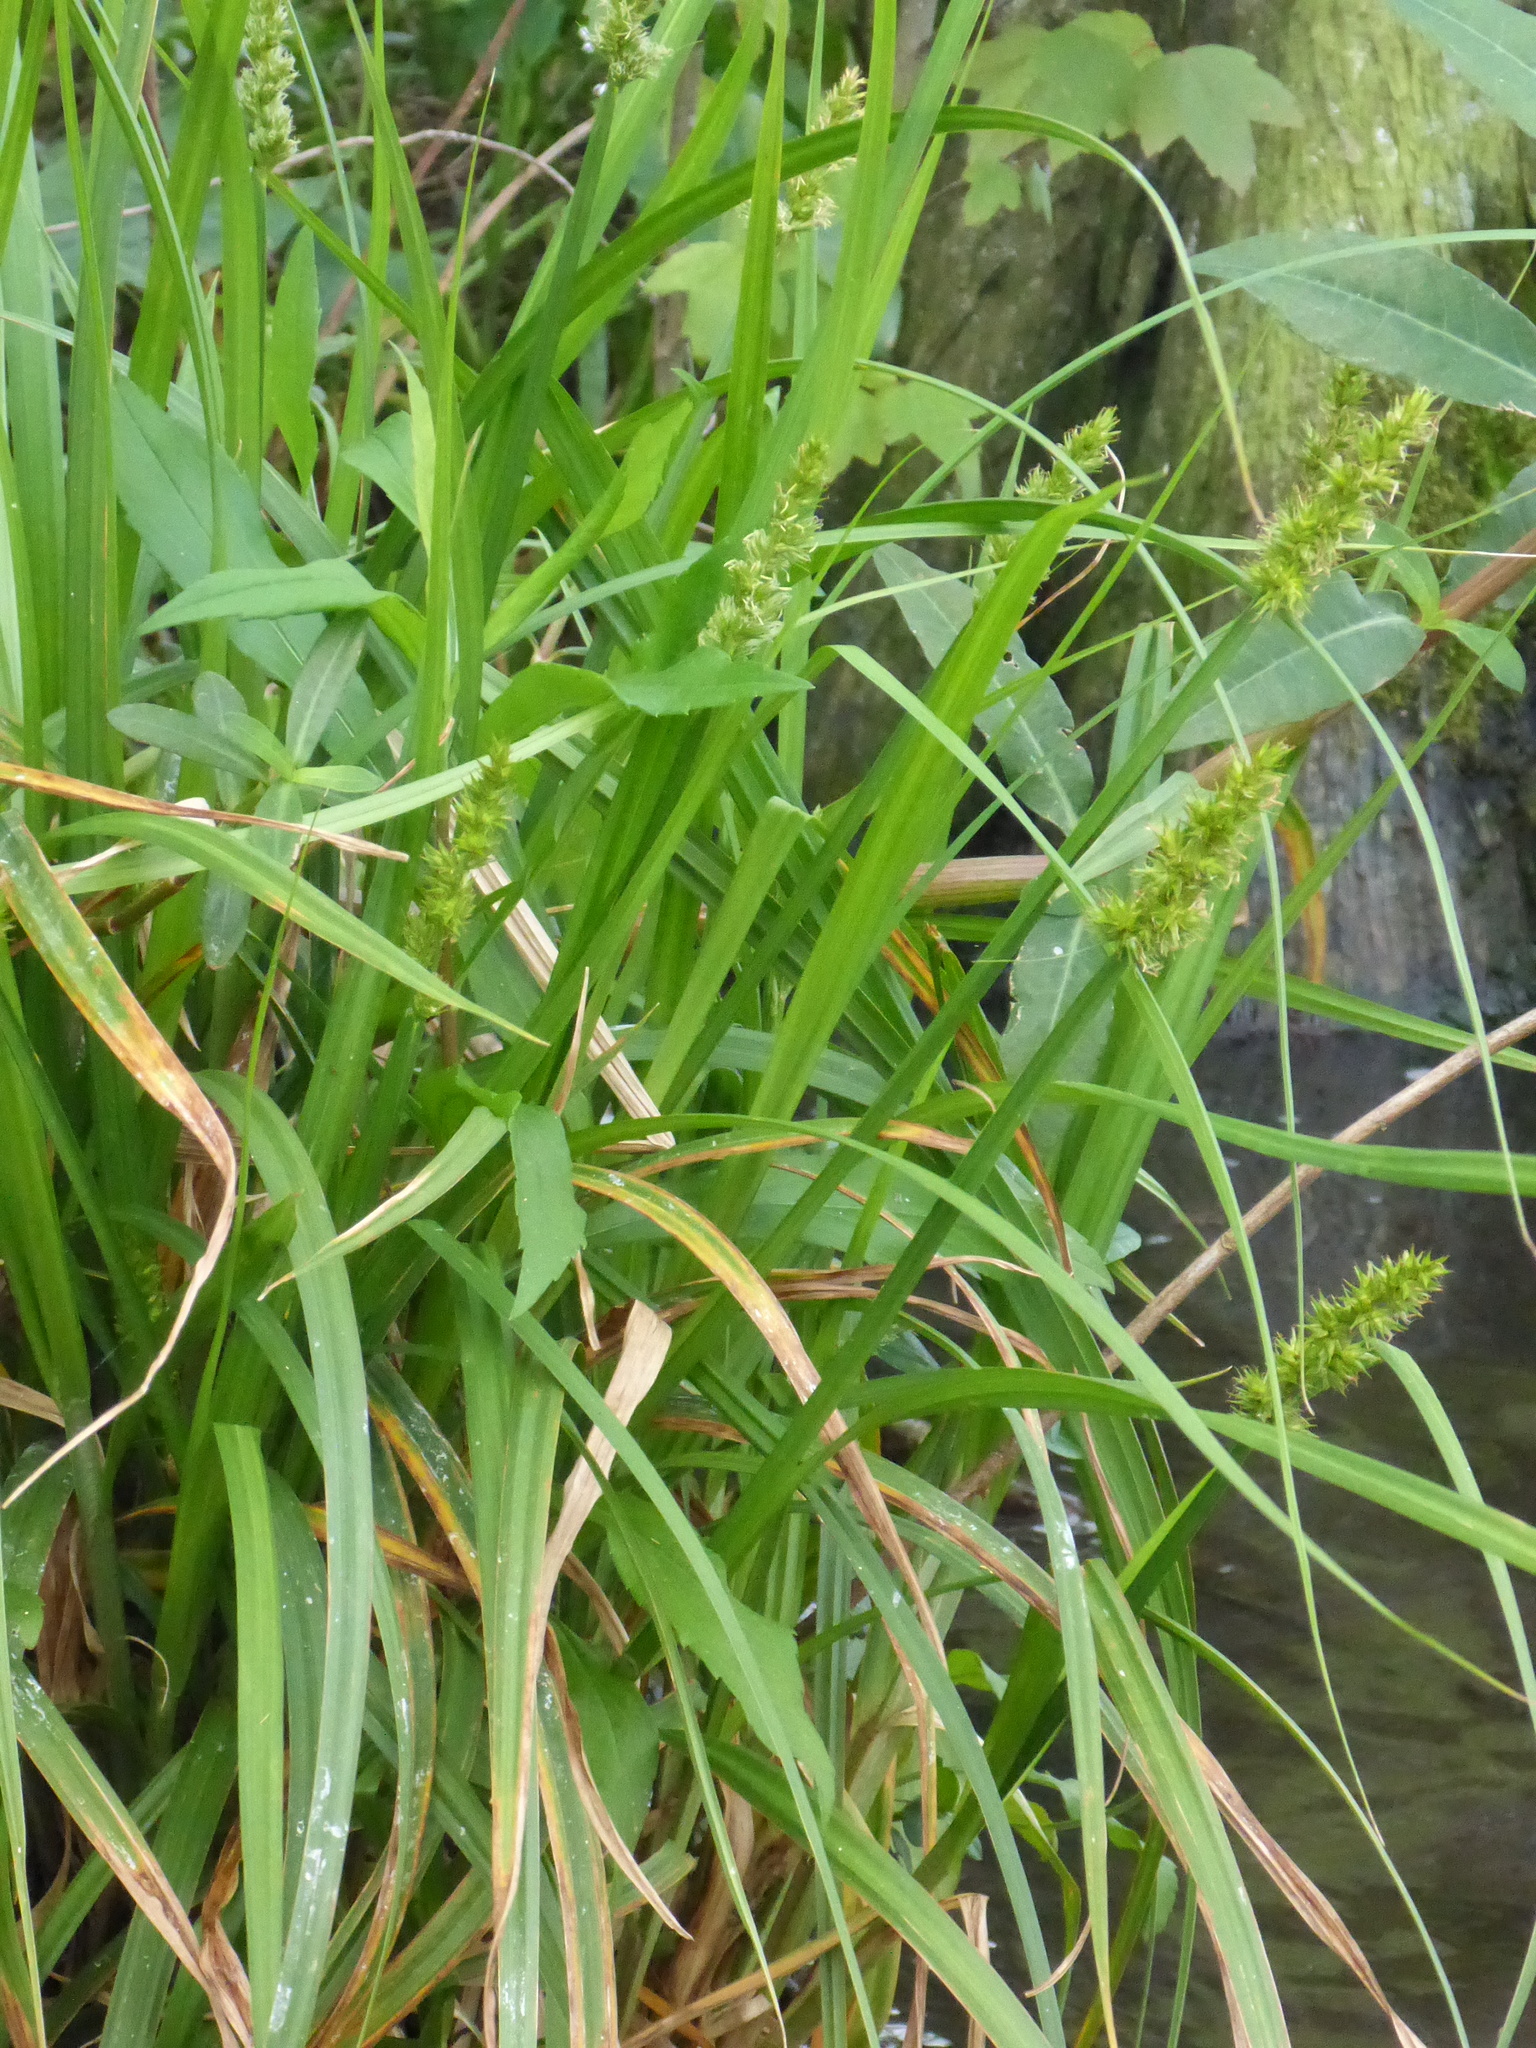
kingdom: Plantae
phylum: Tracheophyta
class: Liliopsida
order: Poales
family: Cyperaceae
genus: Carex
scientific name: Carex stipata
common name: Awl-fruited sedge
